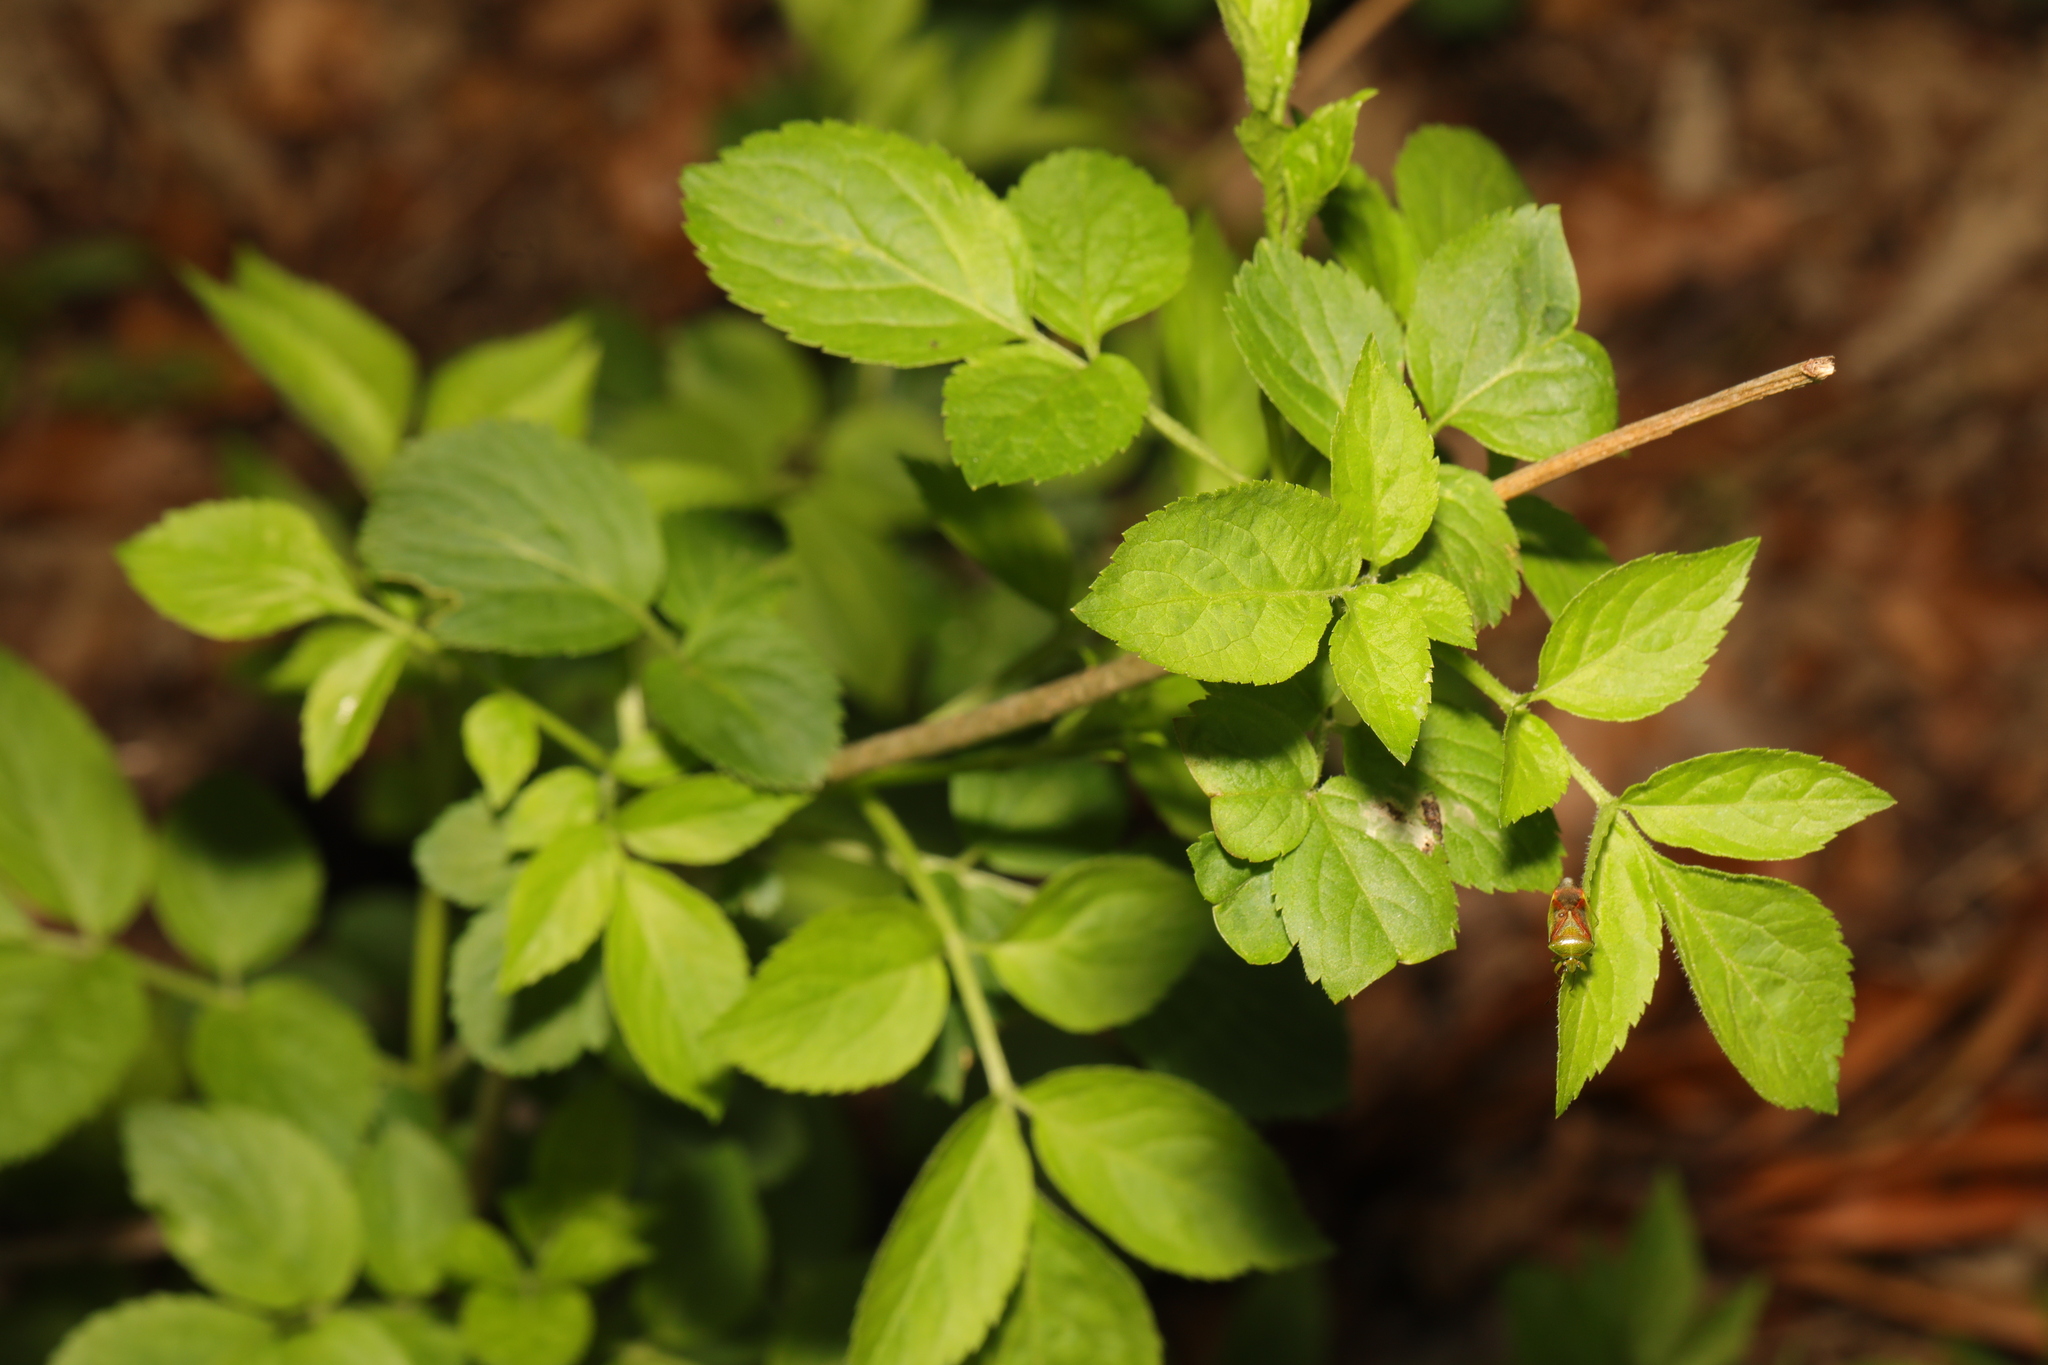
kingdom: Plantae
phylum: Tracheophyta
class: Magnoliopsida
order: Dipsacales
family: Viburnaceae
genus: Sambucus
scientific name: Sambucus nigra
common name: Elder
